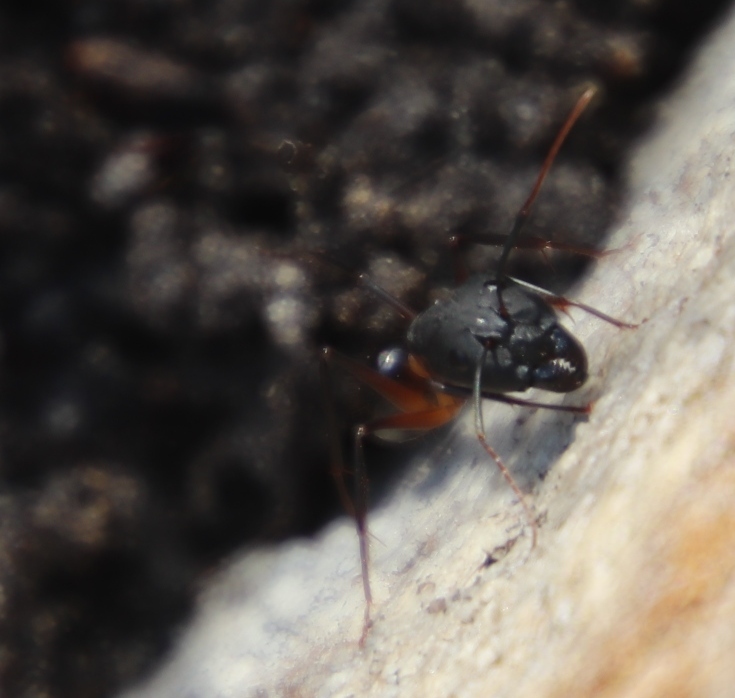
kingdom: Animalia
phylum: Arthropoda
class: Insecta
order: Hymenoptera
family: Formicidae
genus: Camponotus
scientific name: Camponotus maculatus
